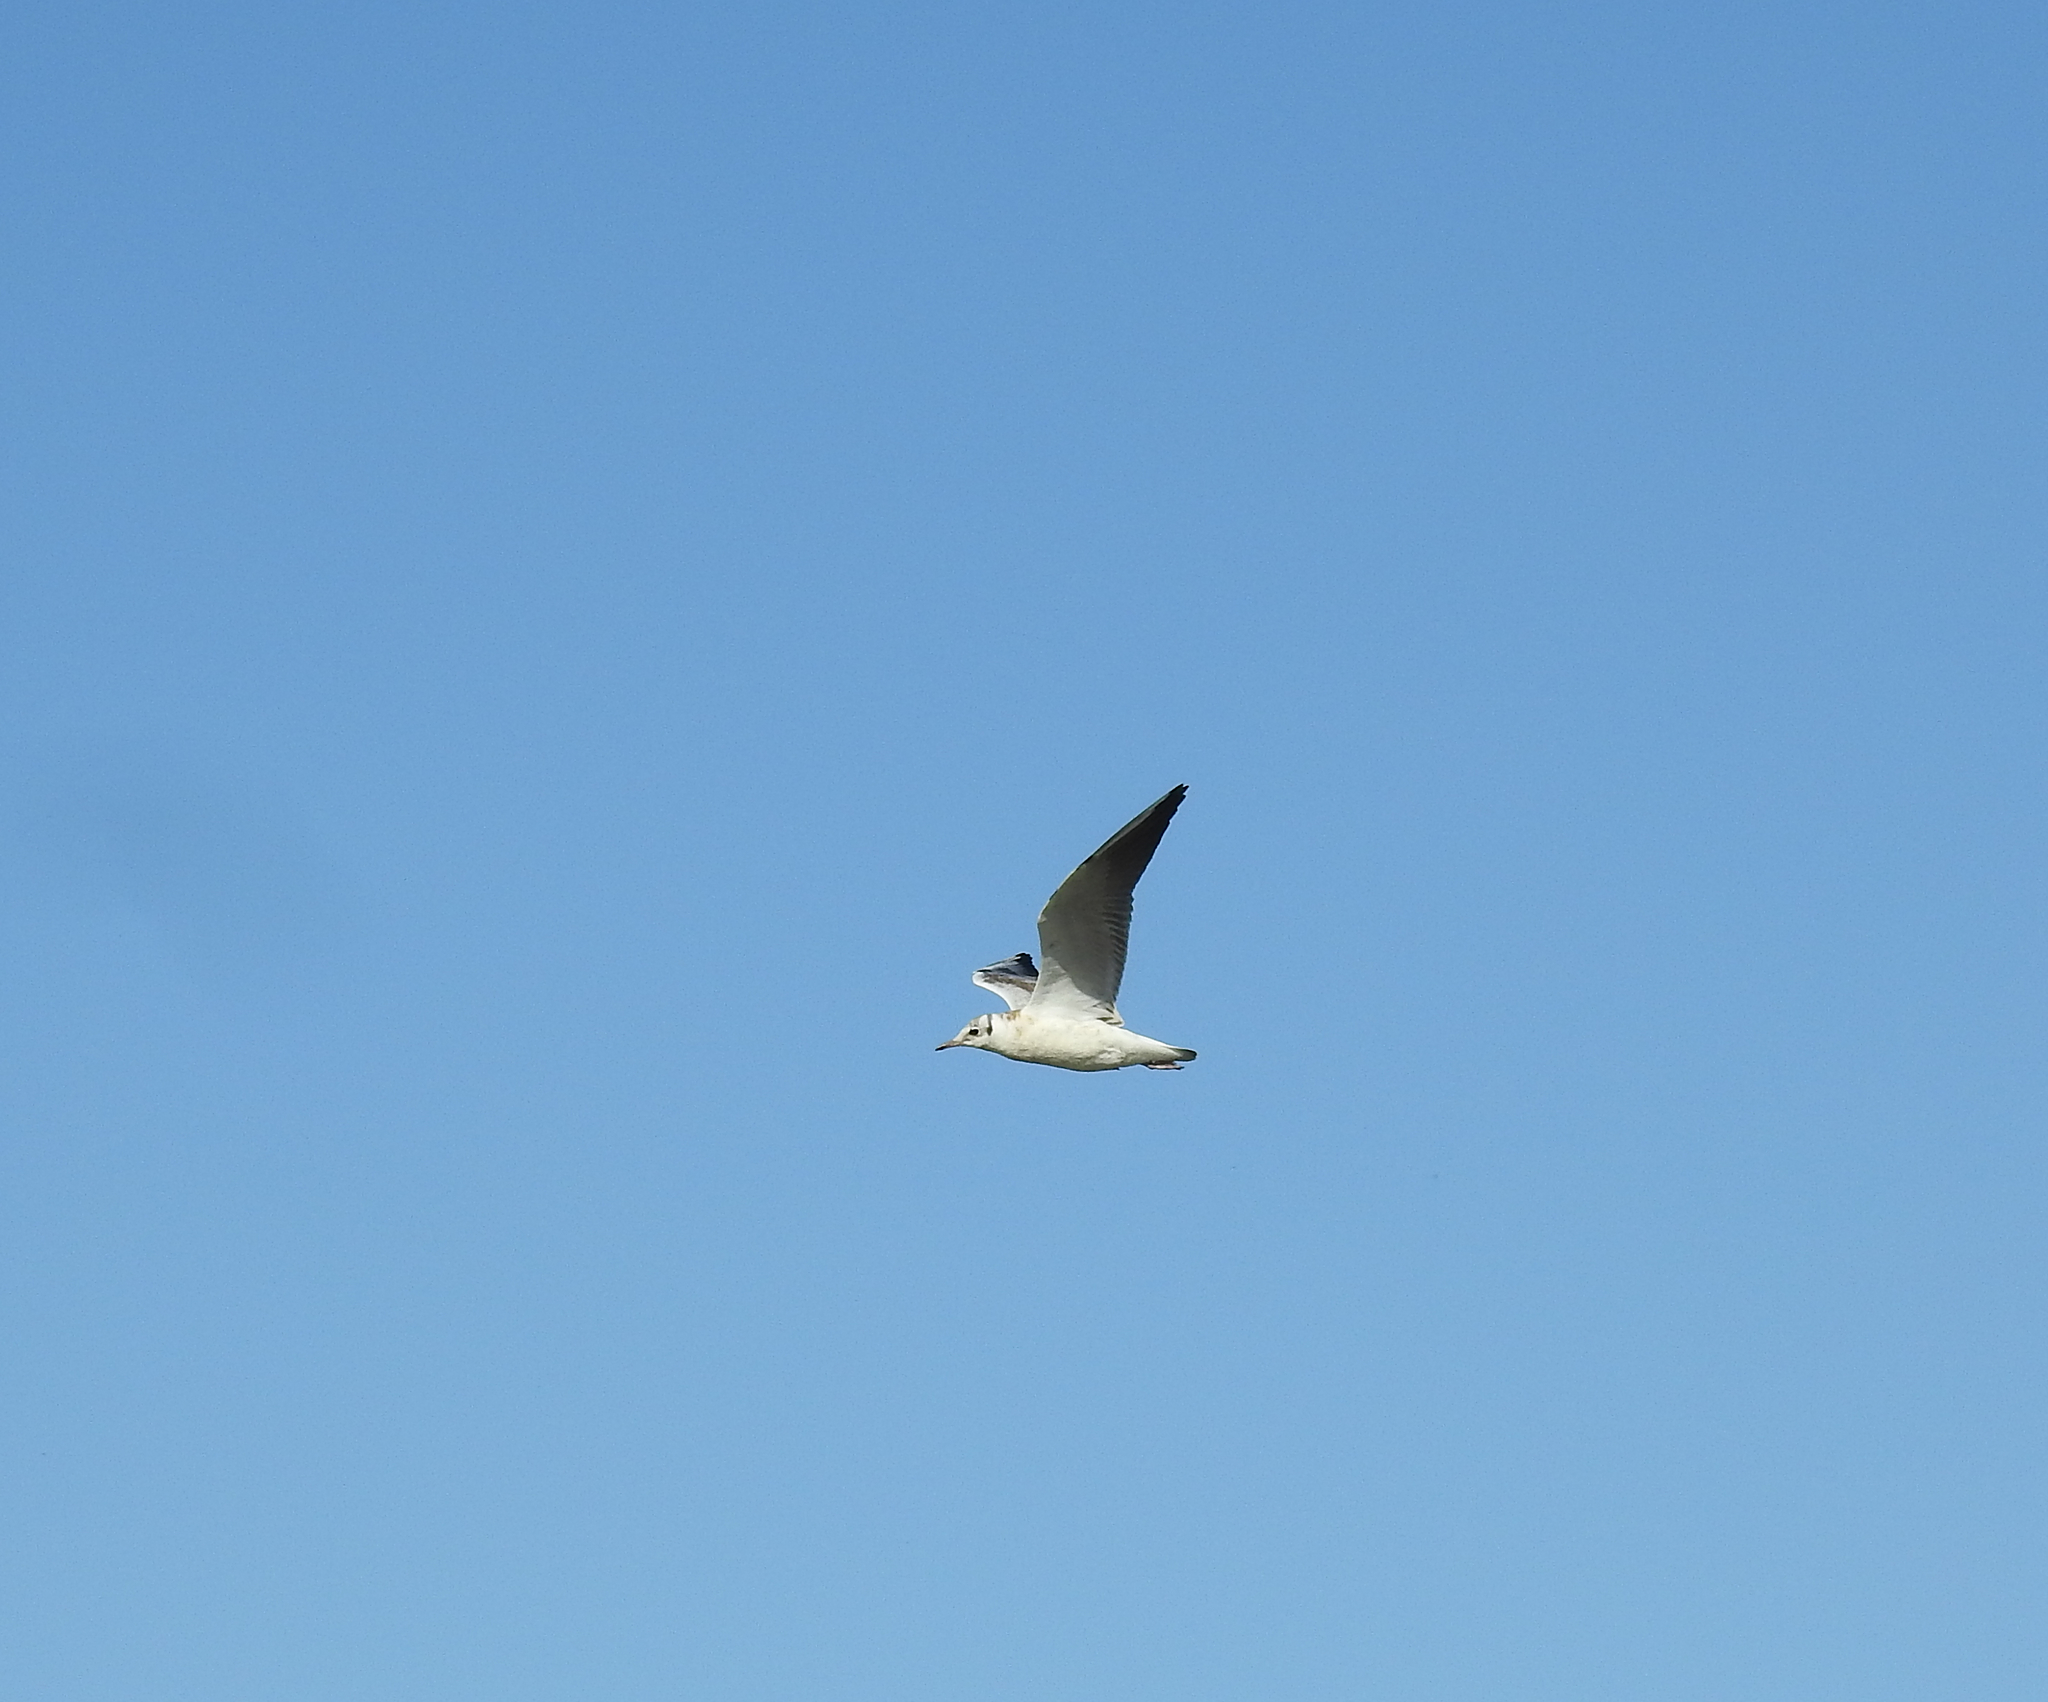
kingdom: Animalia
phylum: Chordata
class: Aves
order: Charadriiformes
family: Laridae
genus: Chroicocephalus
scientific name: Chroicocephalus ridibundus
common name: Black-headed gull
